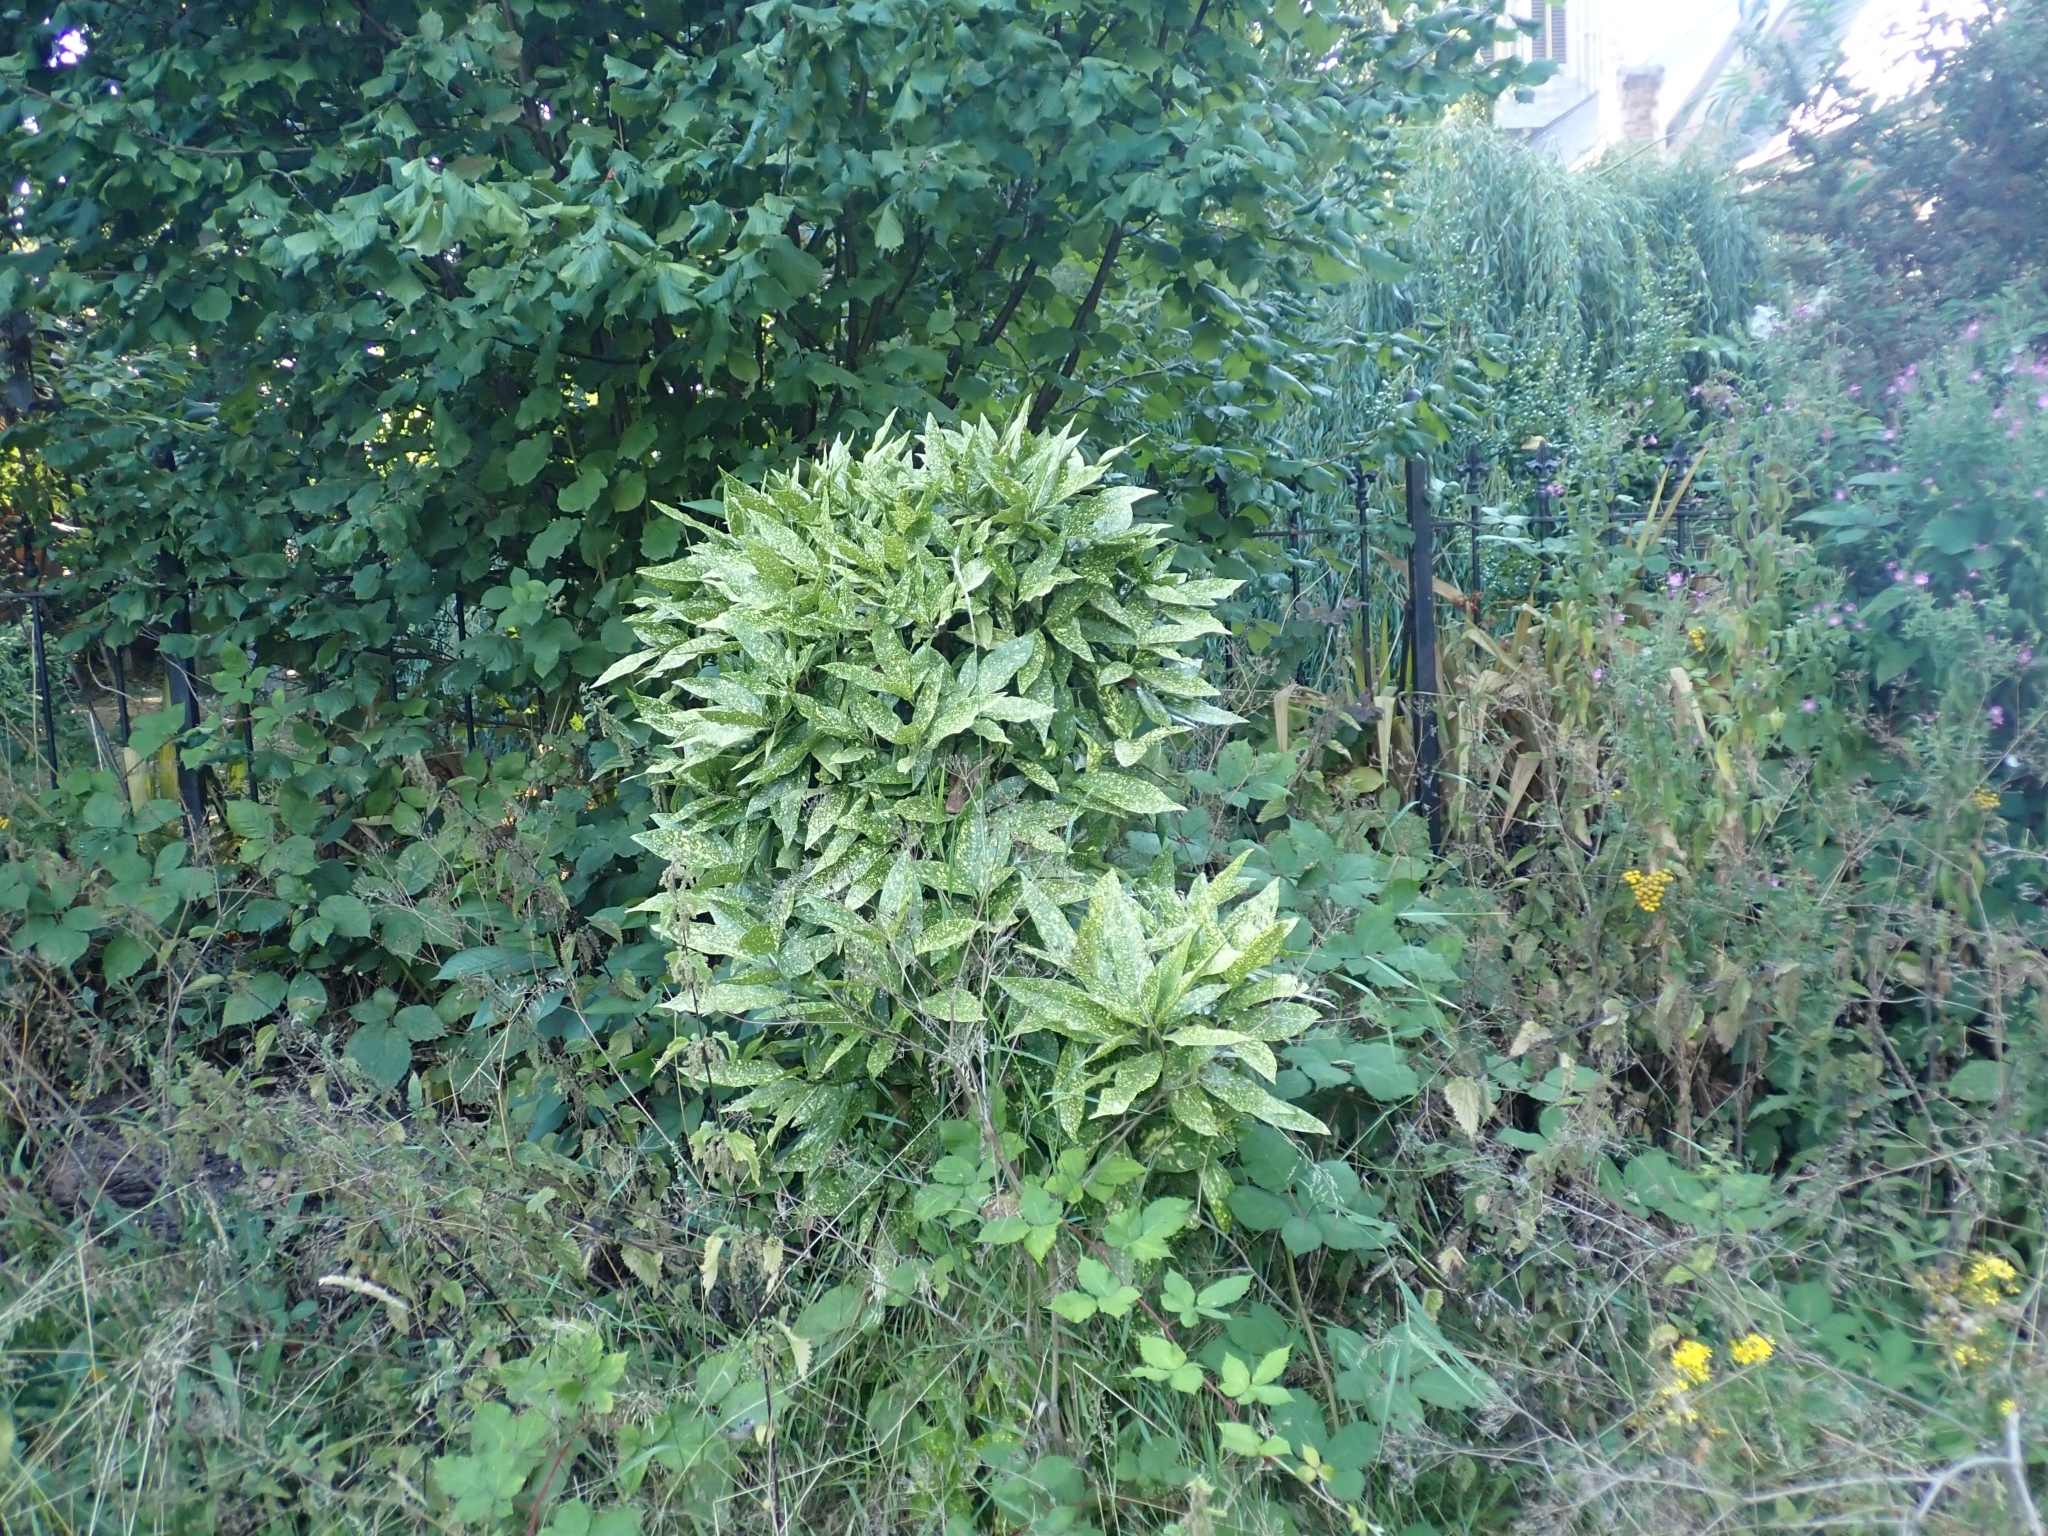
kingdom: Plantae
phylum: Tracheophyta
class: Magnoliopsida
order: Garryales
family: Garryaceae
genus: Aucuba
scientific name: Aucuba japonica
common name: Spotted-laurel
